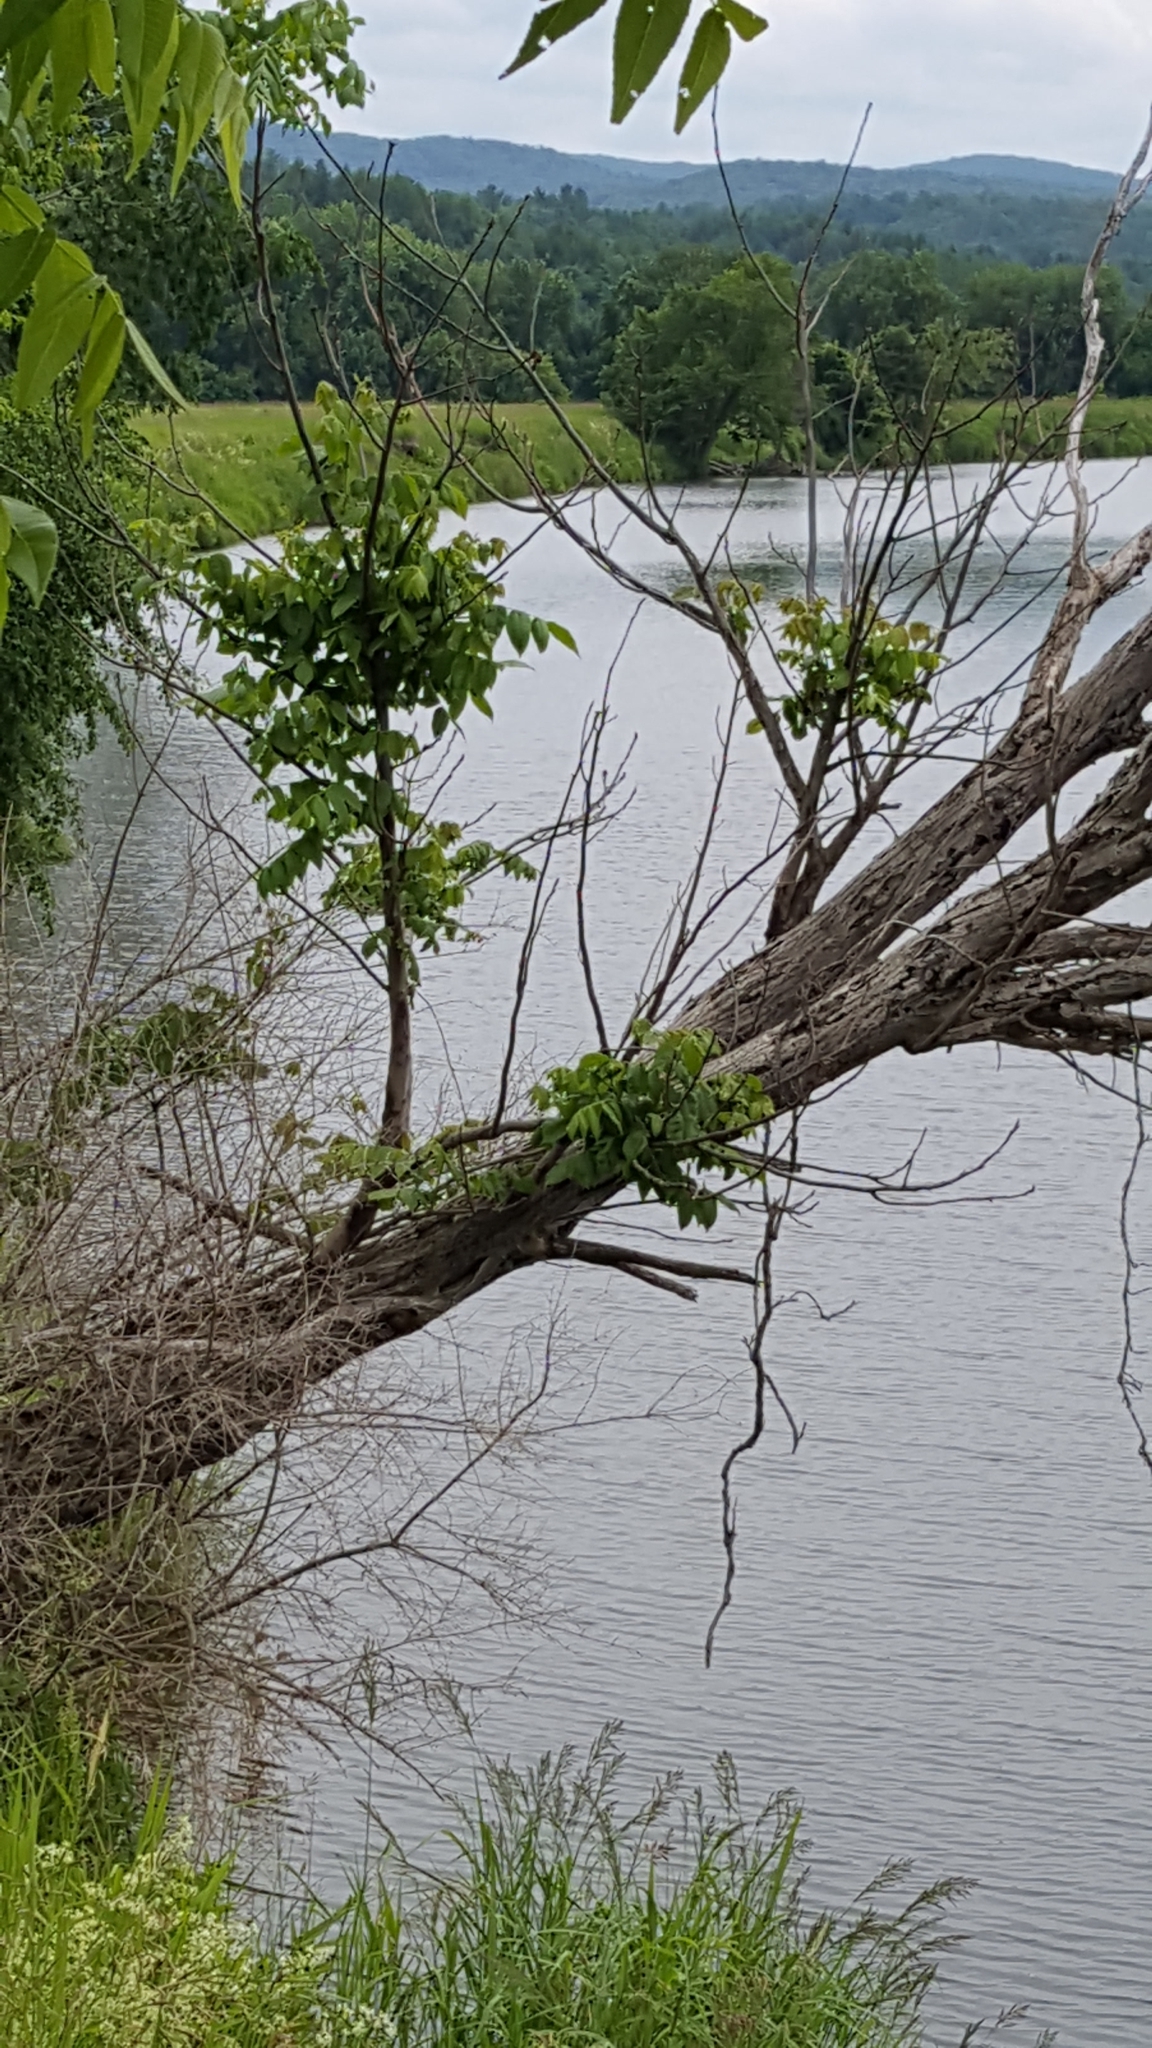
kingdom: Plantae
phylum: Tracheophyta
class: Magnoliopsida
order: Fagales
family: Juglandaceae
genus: Juglans
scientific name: Juglans cinerea
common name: Butternut
